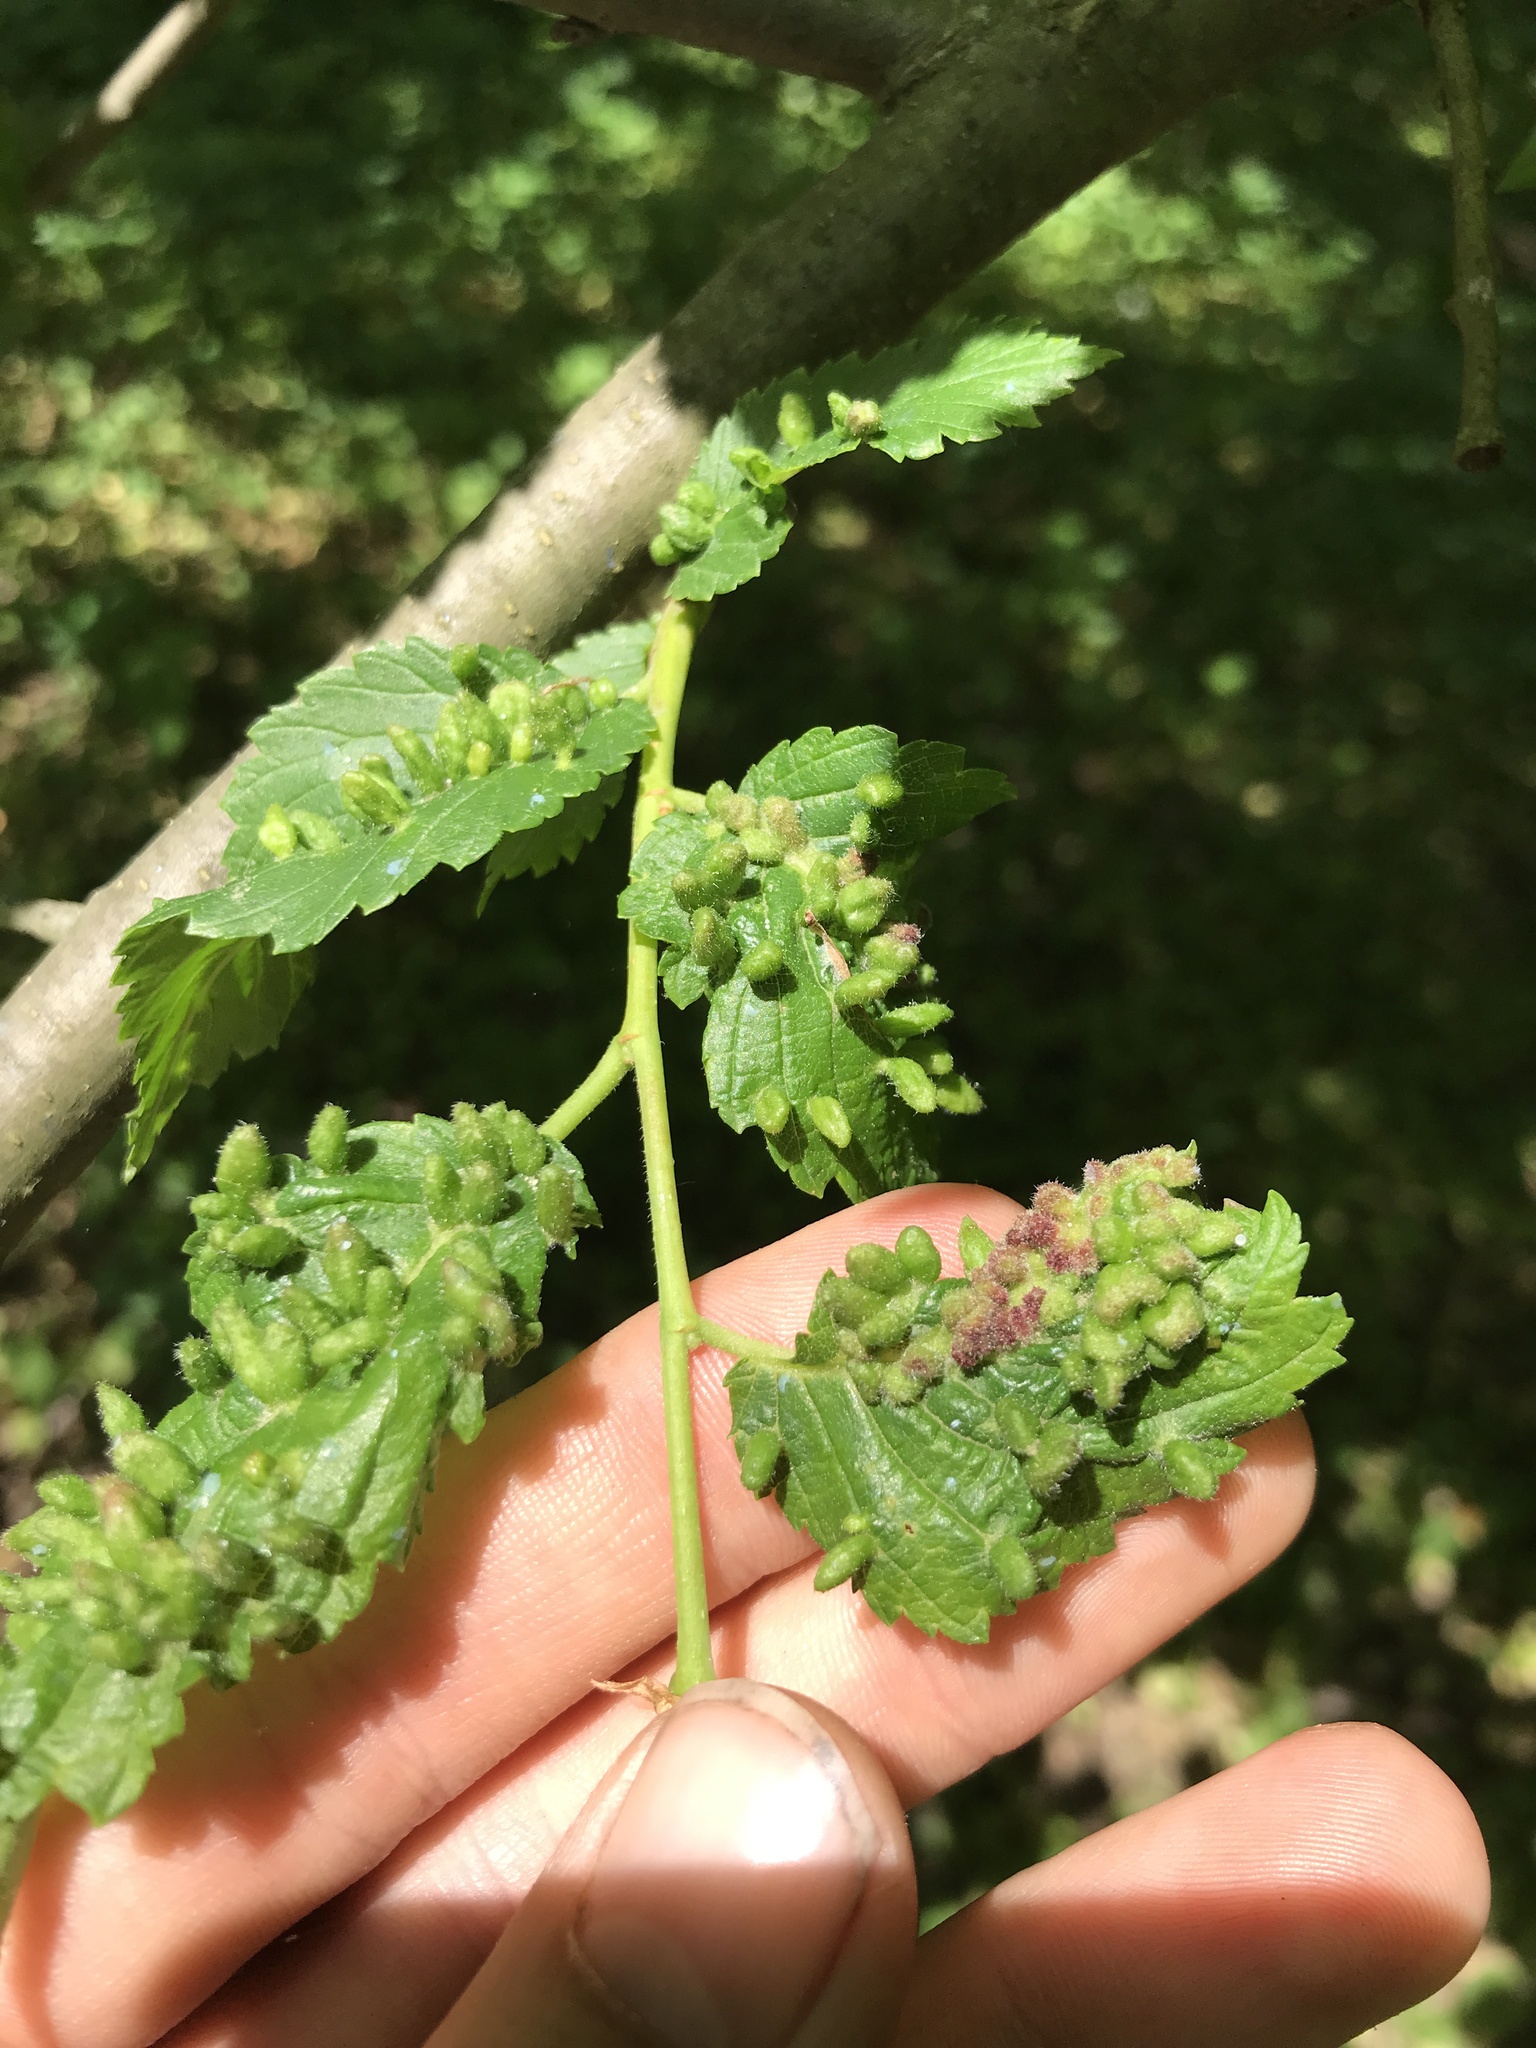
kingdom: Animalia
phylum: Arthropoda
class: Arachnida
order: Trombidiformes
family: Eriophyidae
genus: Aceria
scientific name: Aceria
